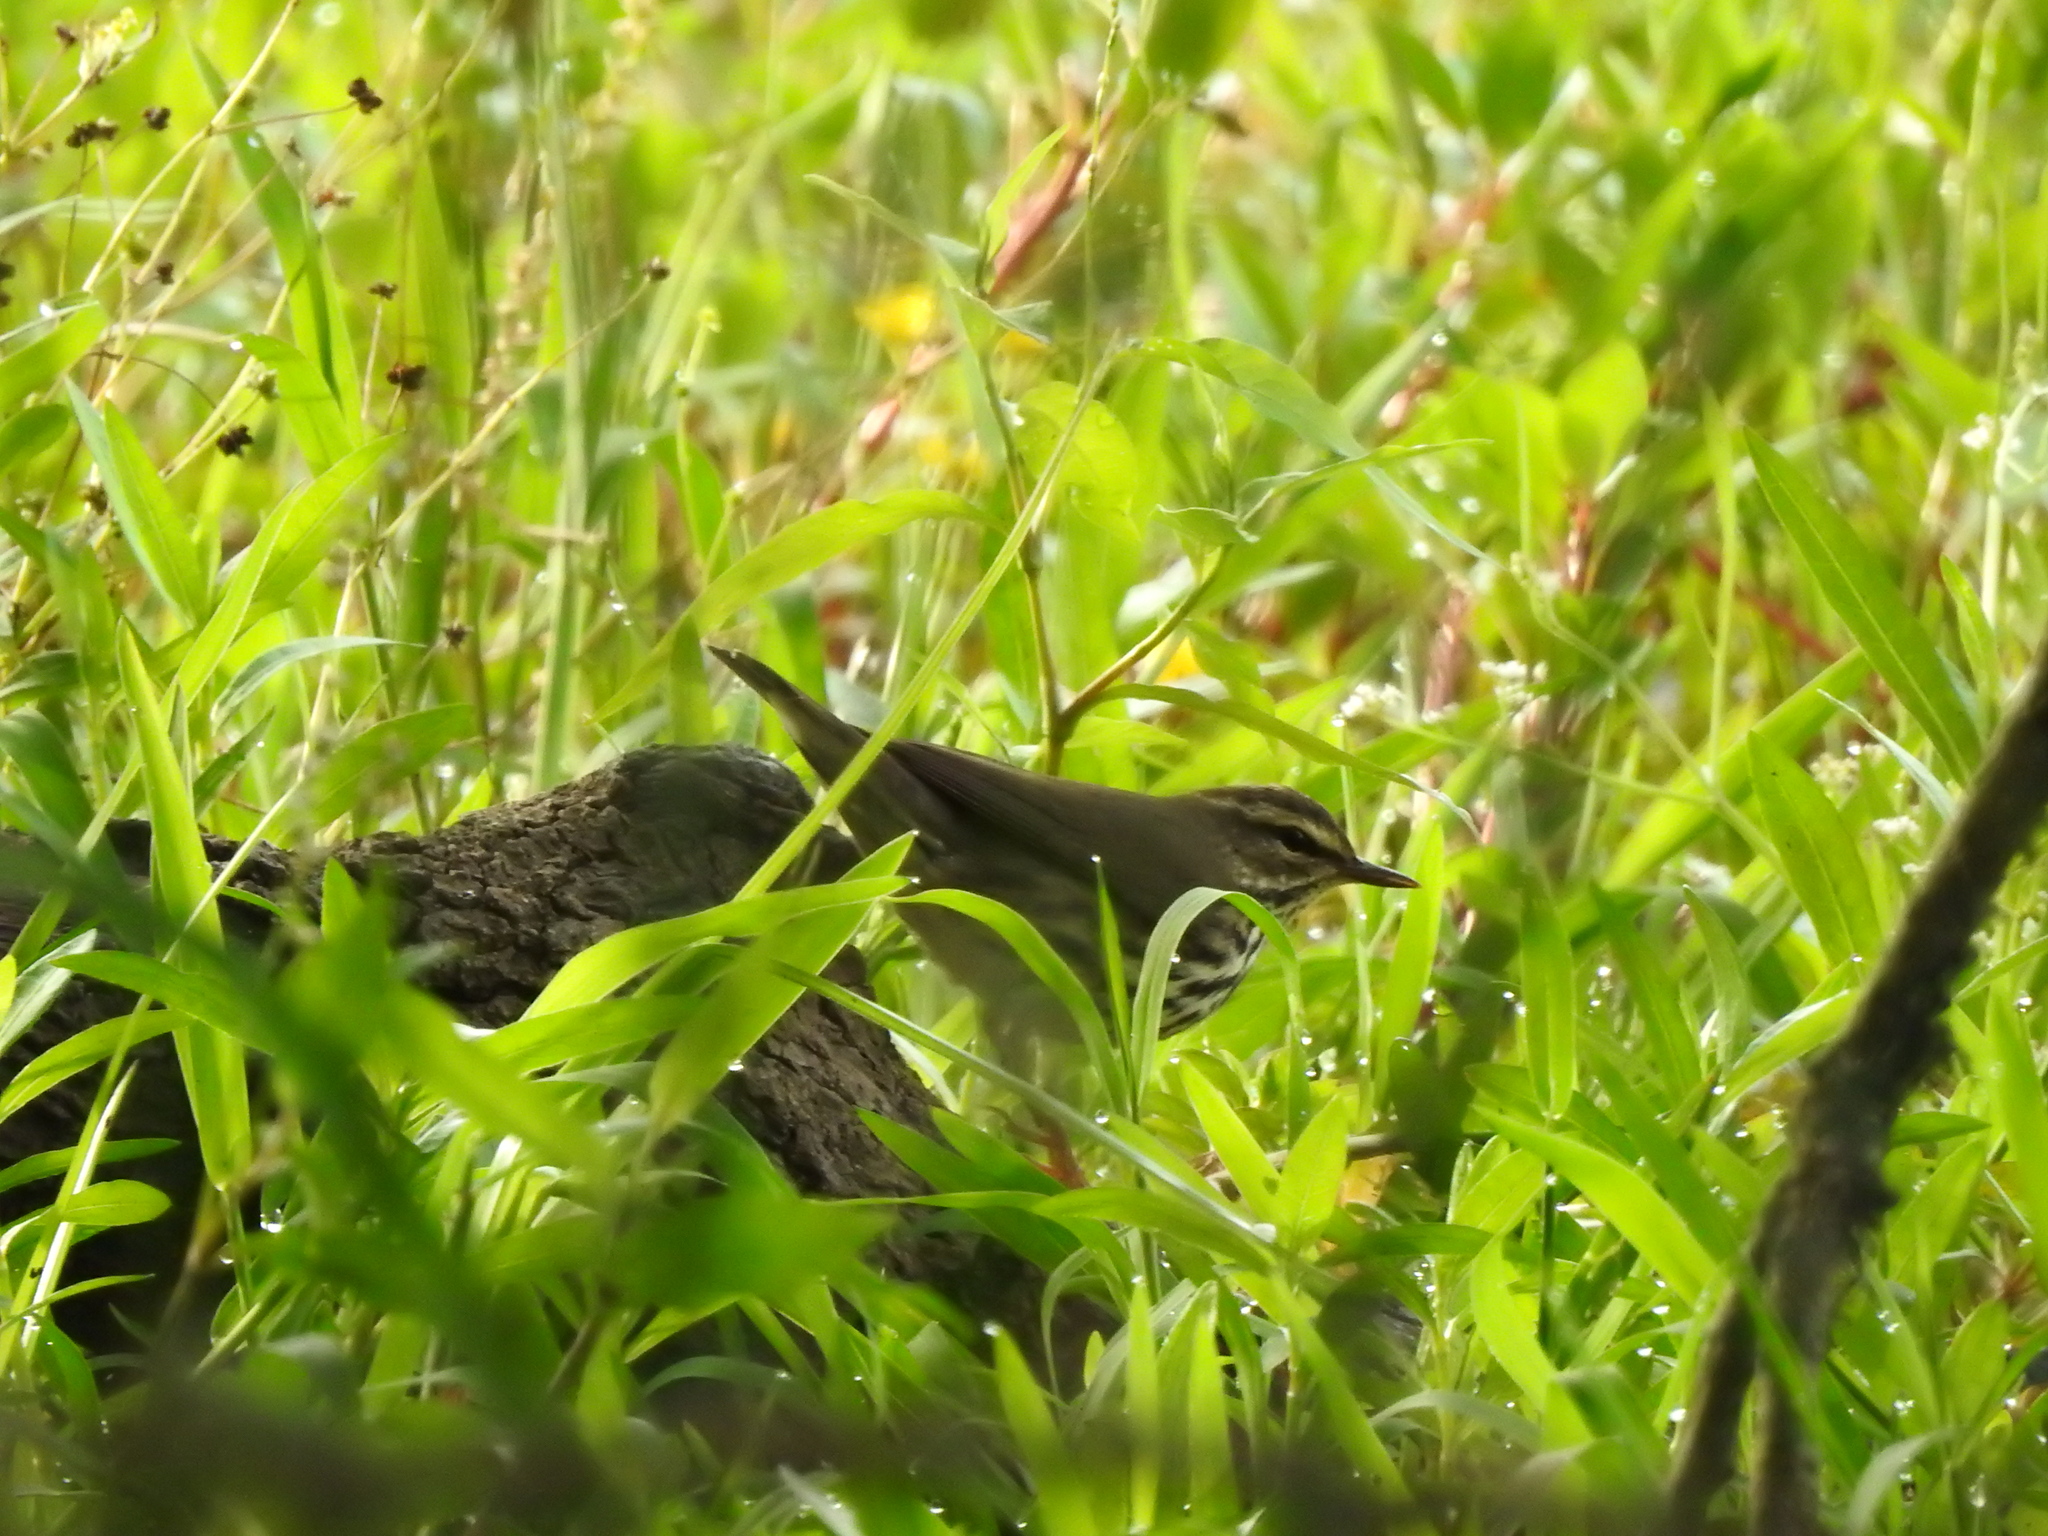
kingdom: Animalia
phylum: Chordata
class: Aves
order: Passeriformes
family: Parulidae
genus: Parkesia
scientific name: Parkesia noveboracensis
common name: Northern waterthrush
